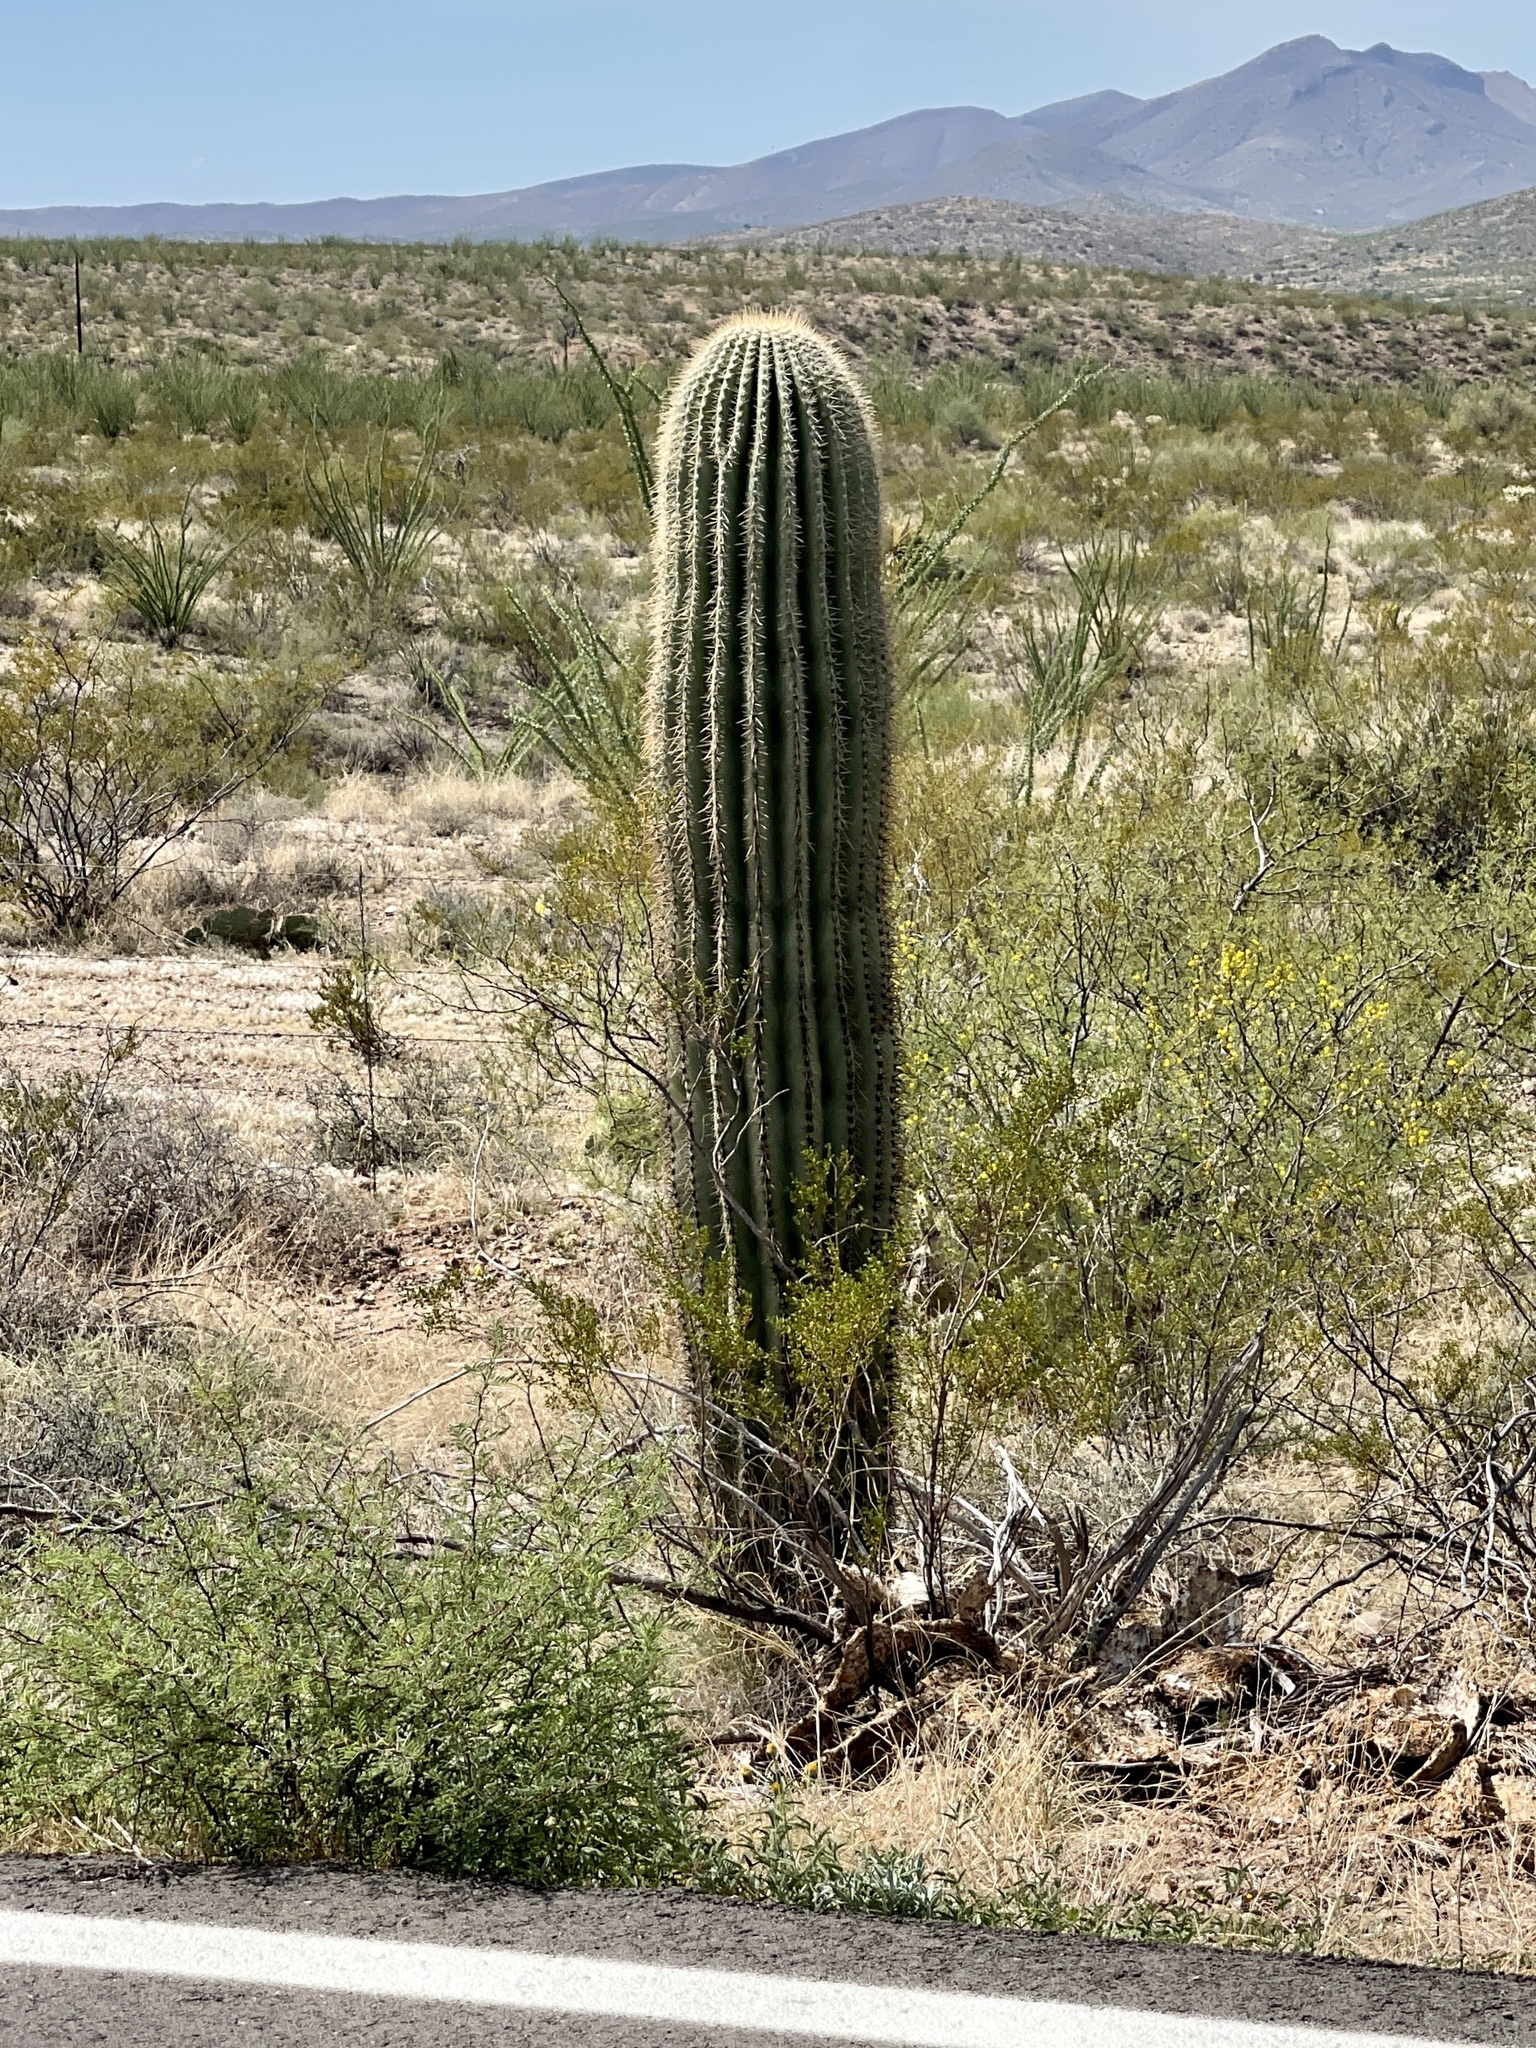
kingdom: Plantae
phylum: Tracheophyta
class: Magnoliopsida
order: Caryophyllales
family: Cactaceae
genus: Carnegiea
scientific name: Carnegiea gigantea
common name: Saguaro
